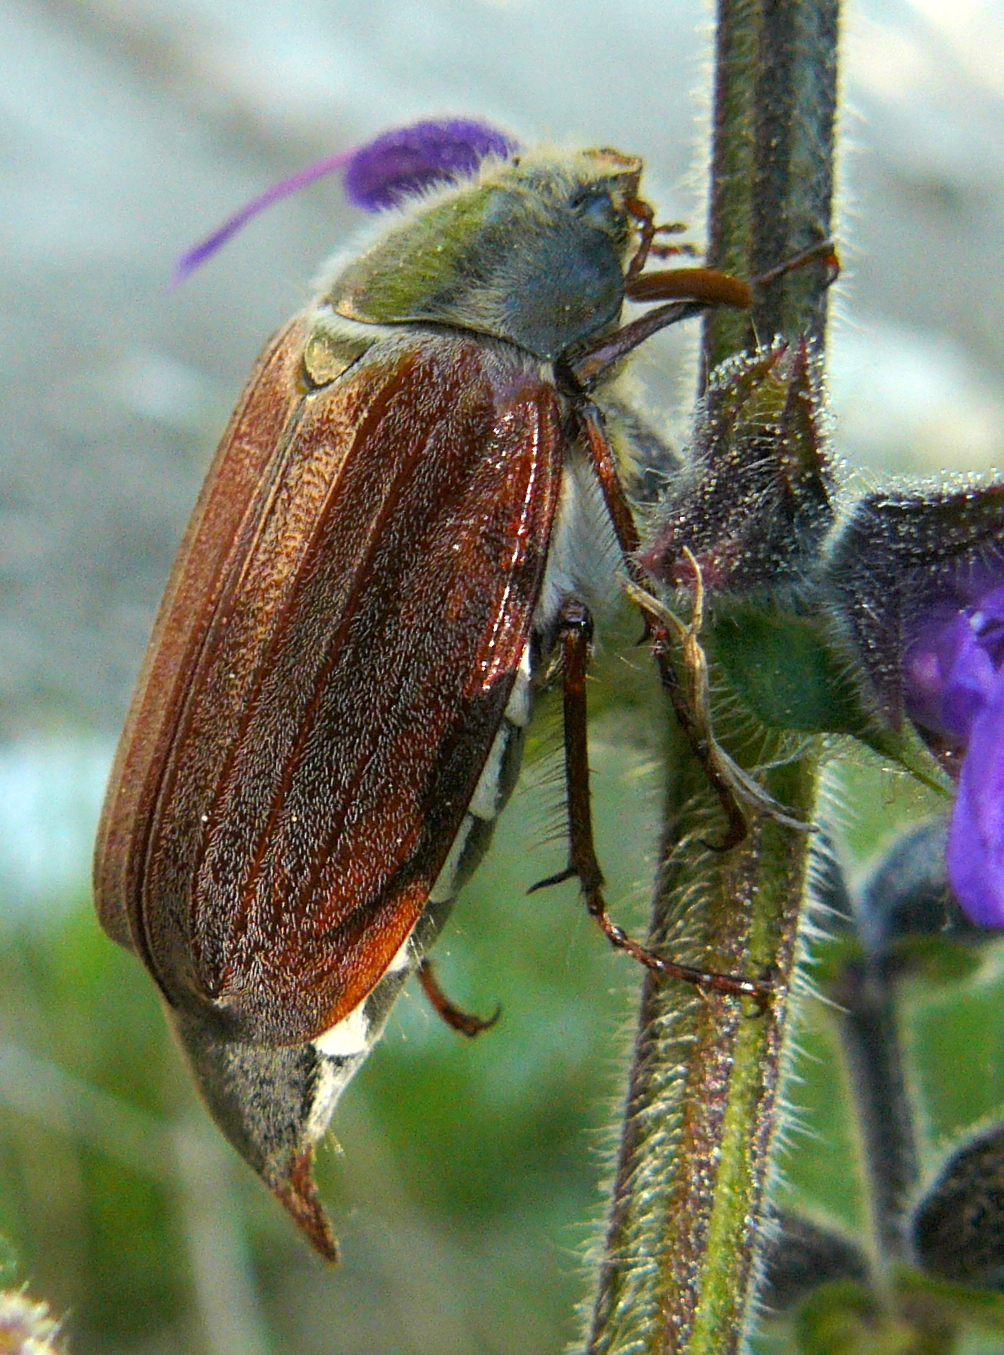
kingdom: Animalia
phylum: Arthropoda
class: Insecta
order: Coleoptera
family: Scarabaeidae
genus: Melolontha
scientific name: Melolontha melolontha
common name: Cockchafer maybeetle
